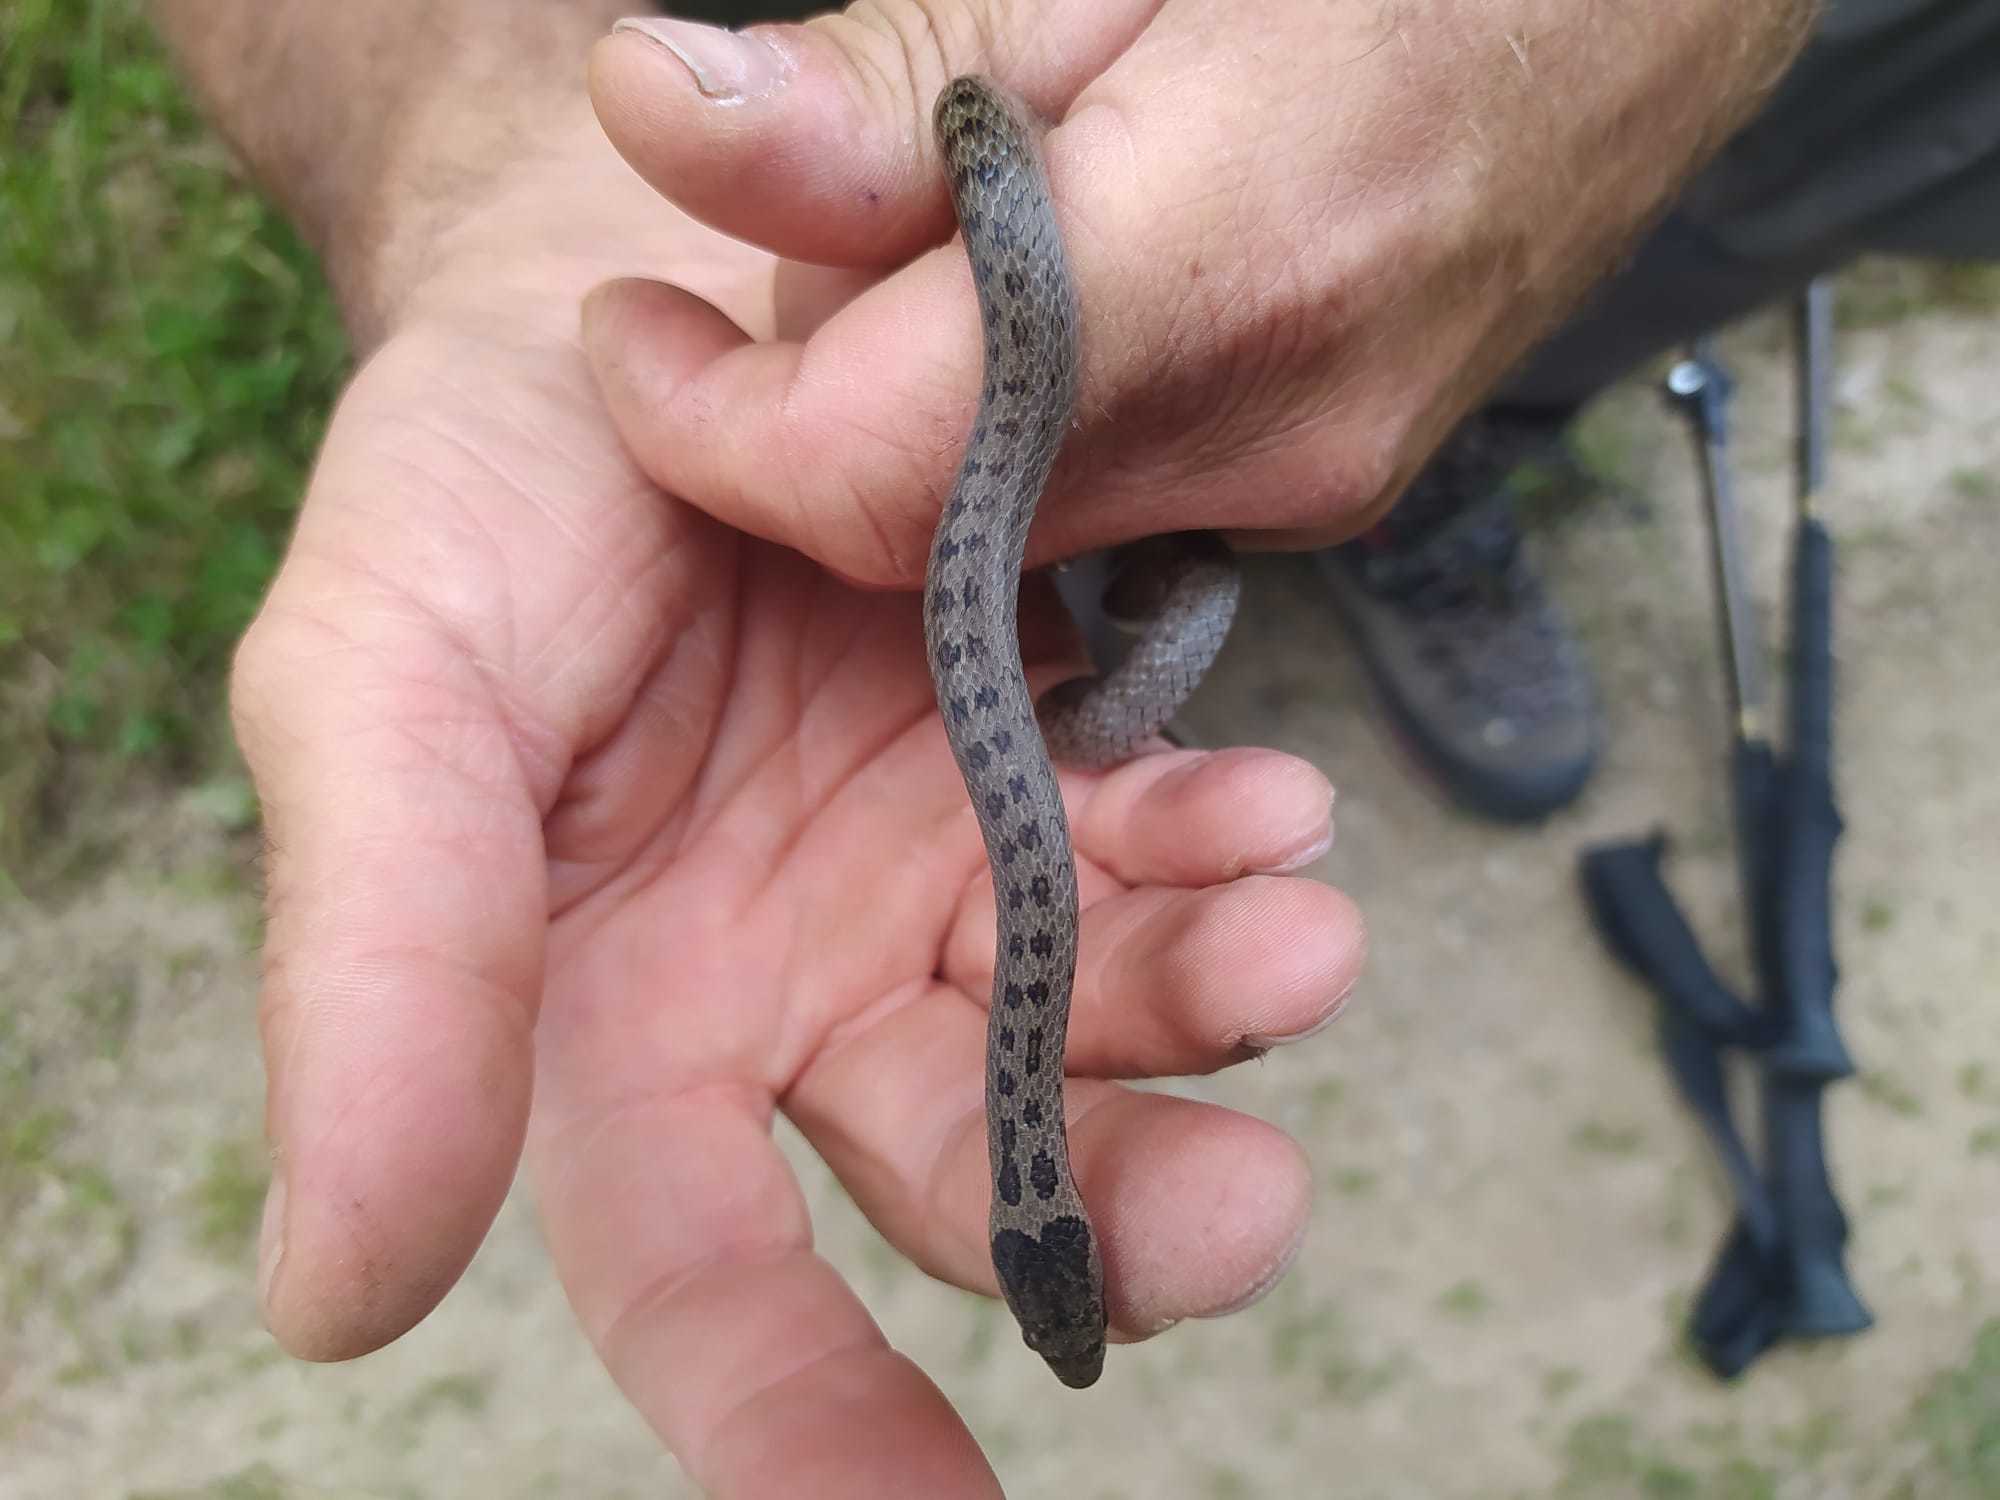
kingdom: Animalia
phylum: Chordata
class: Squamata
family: Colubridae
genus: Coronella
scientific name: Coronella austriaca
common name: Smooth snake
